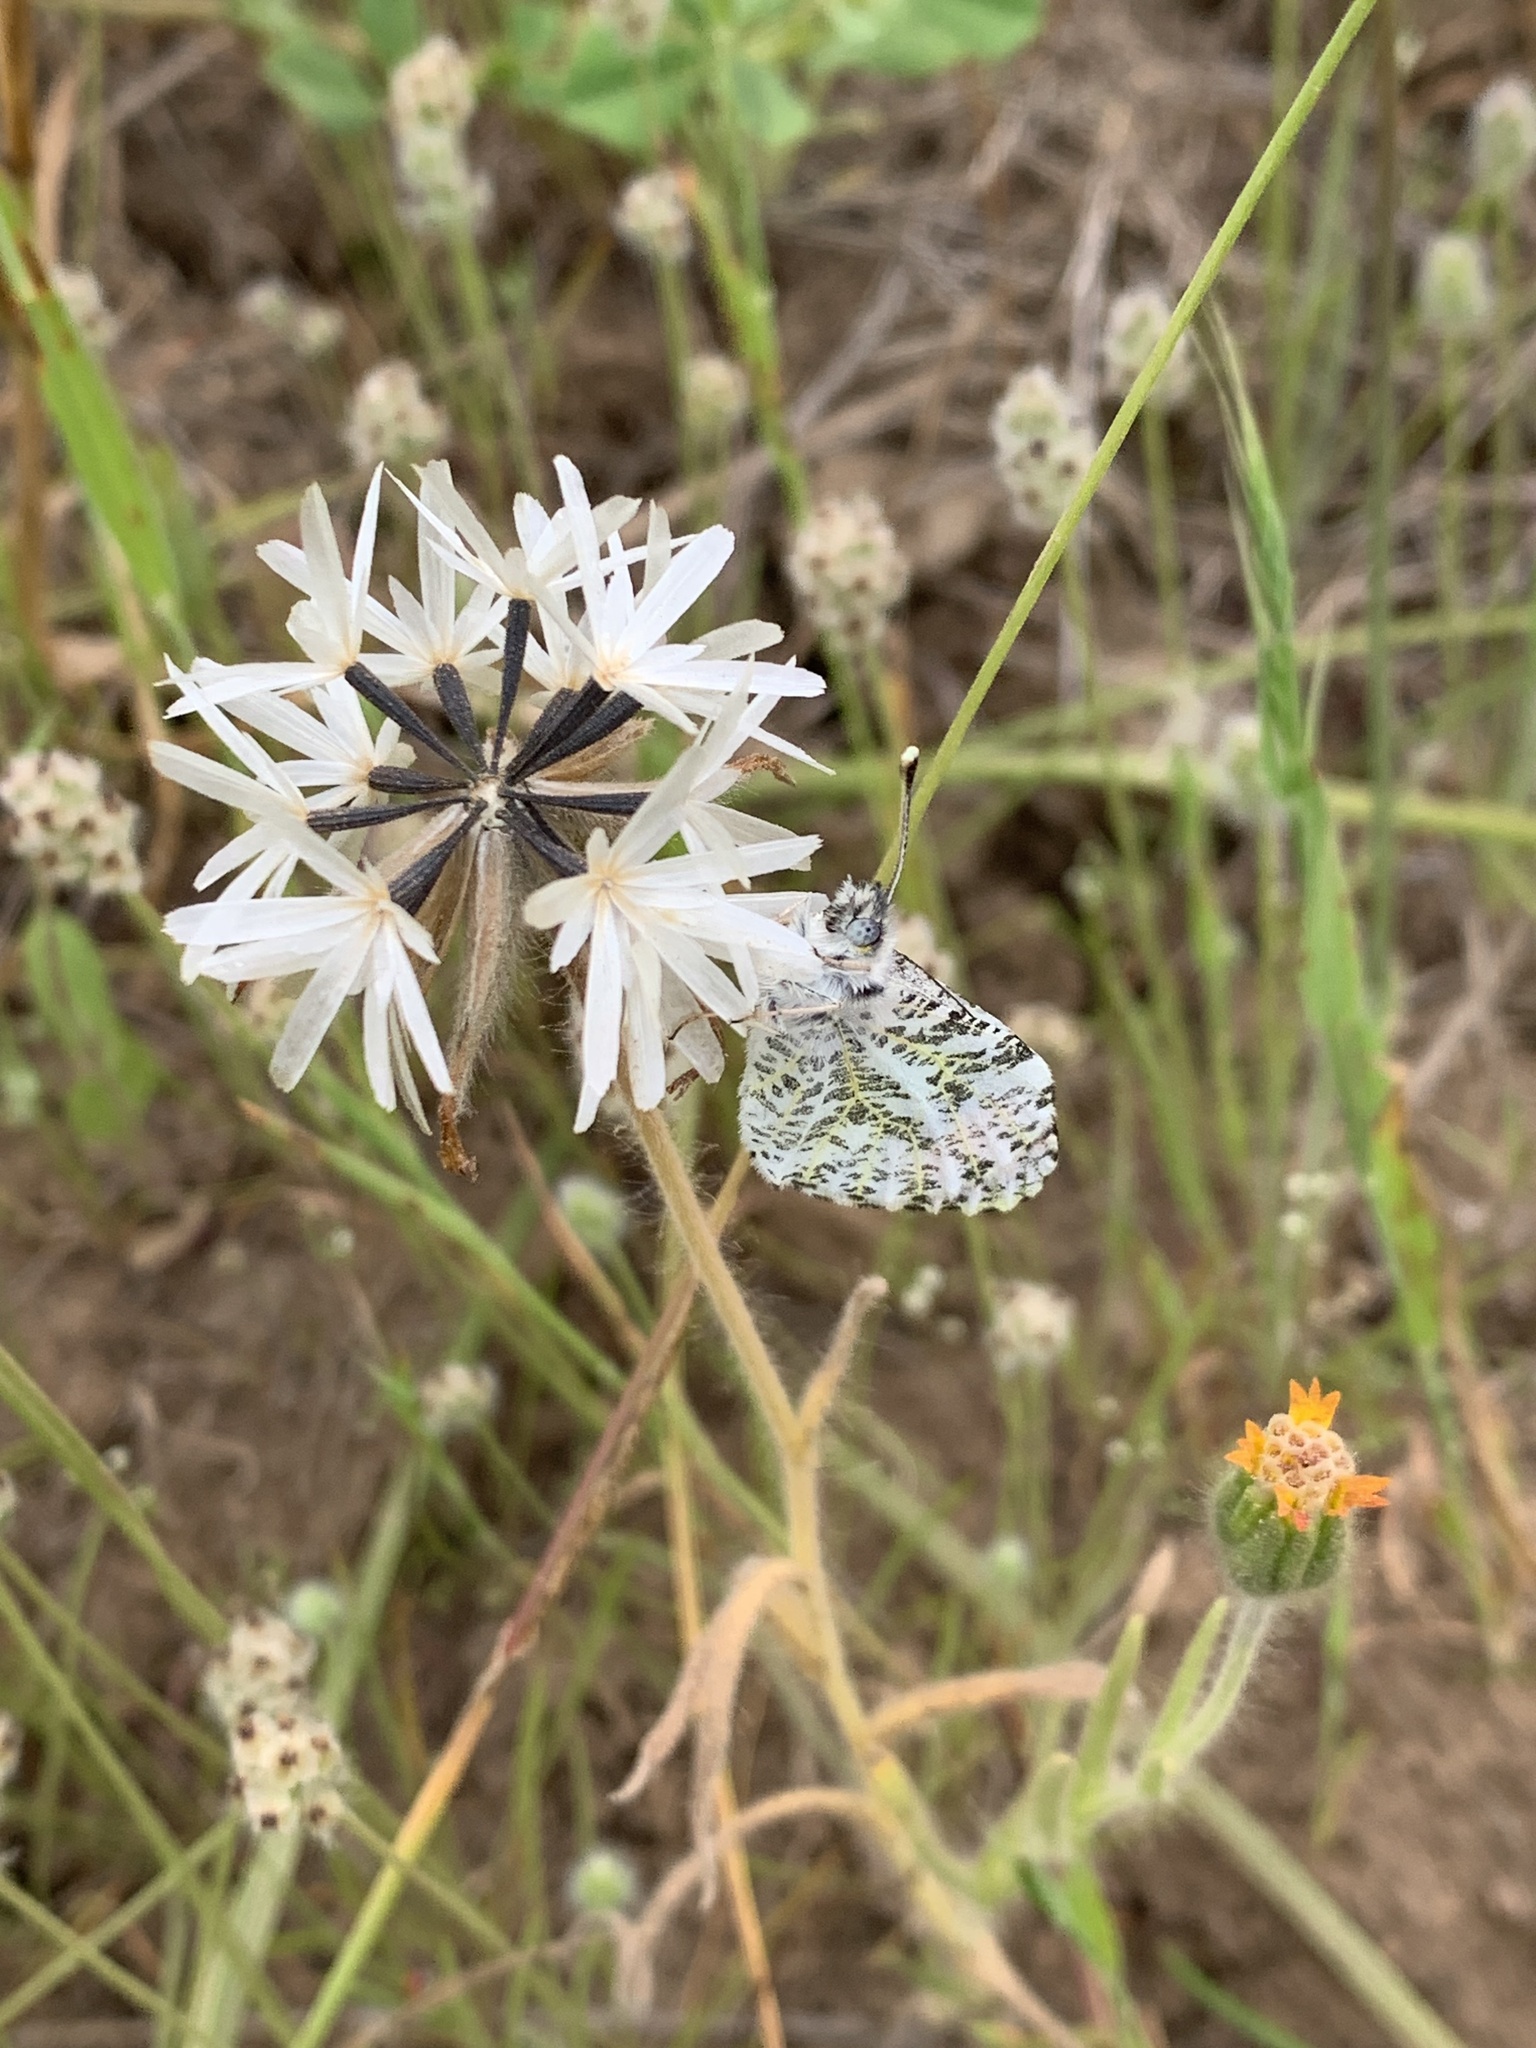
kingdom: Animalia
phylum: Arthropoda
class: Insecta
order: Lepidoptera
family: Pieridae
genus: Anthocharis
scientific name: Anthocharis sara
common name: Sara's orangetip
